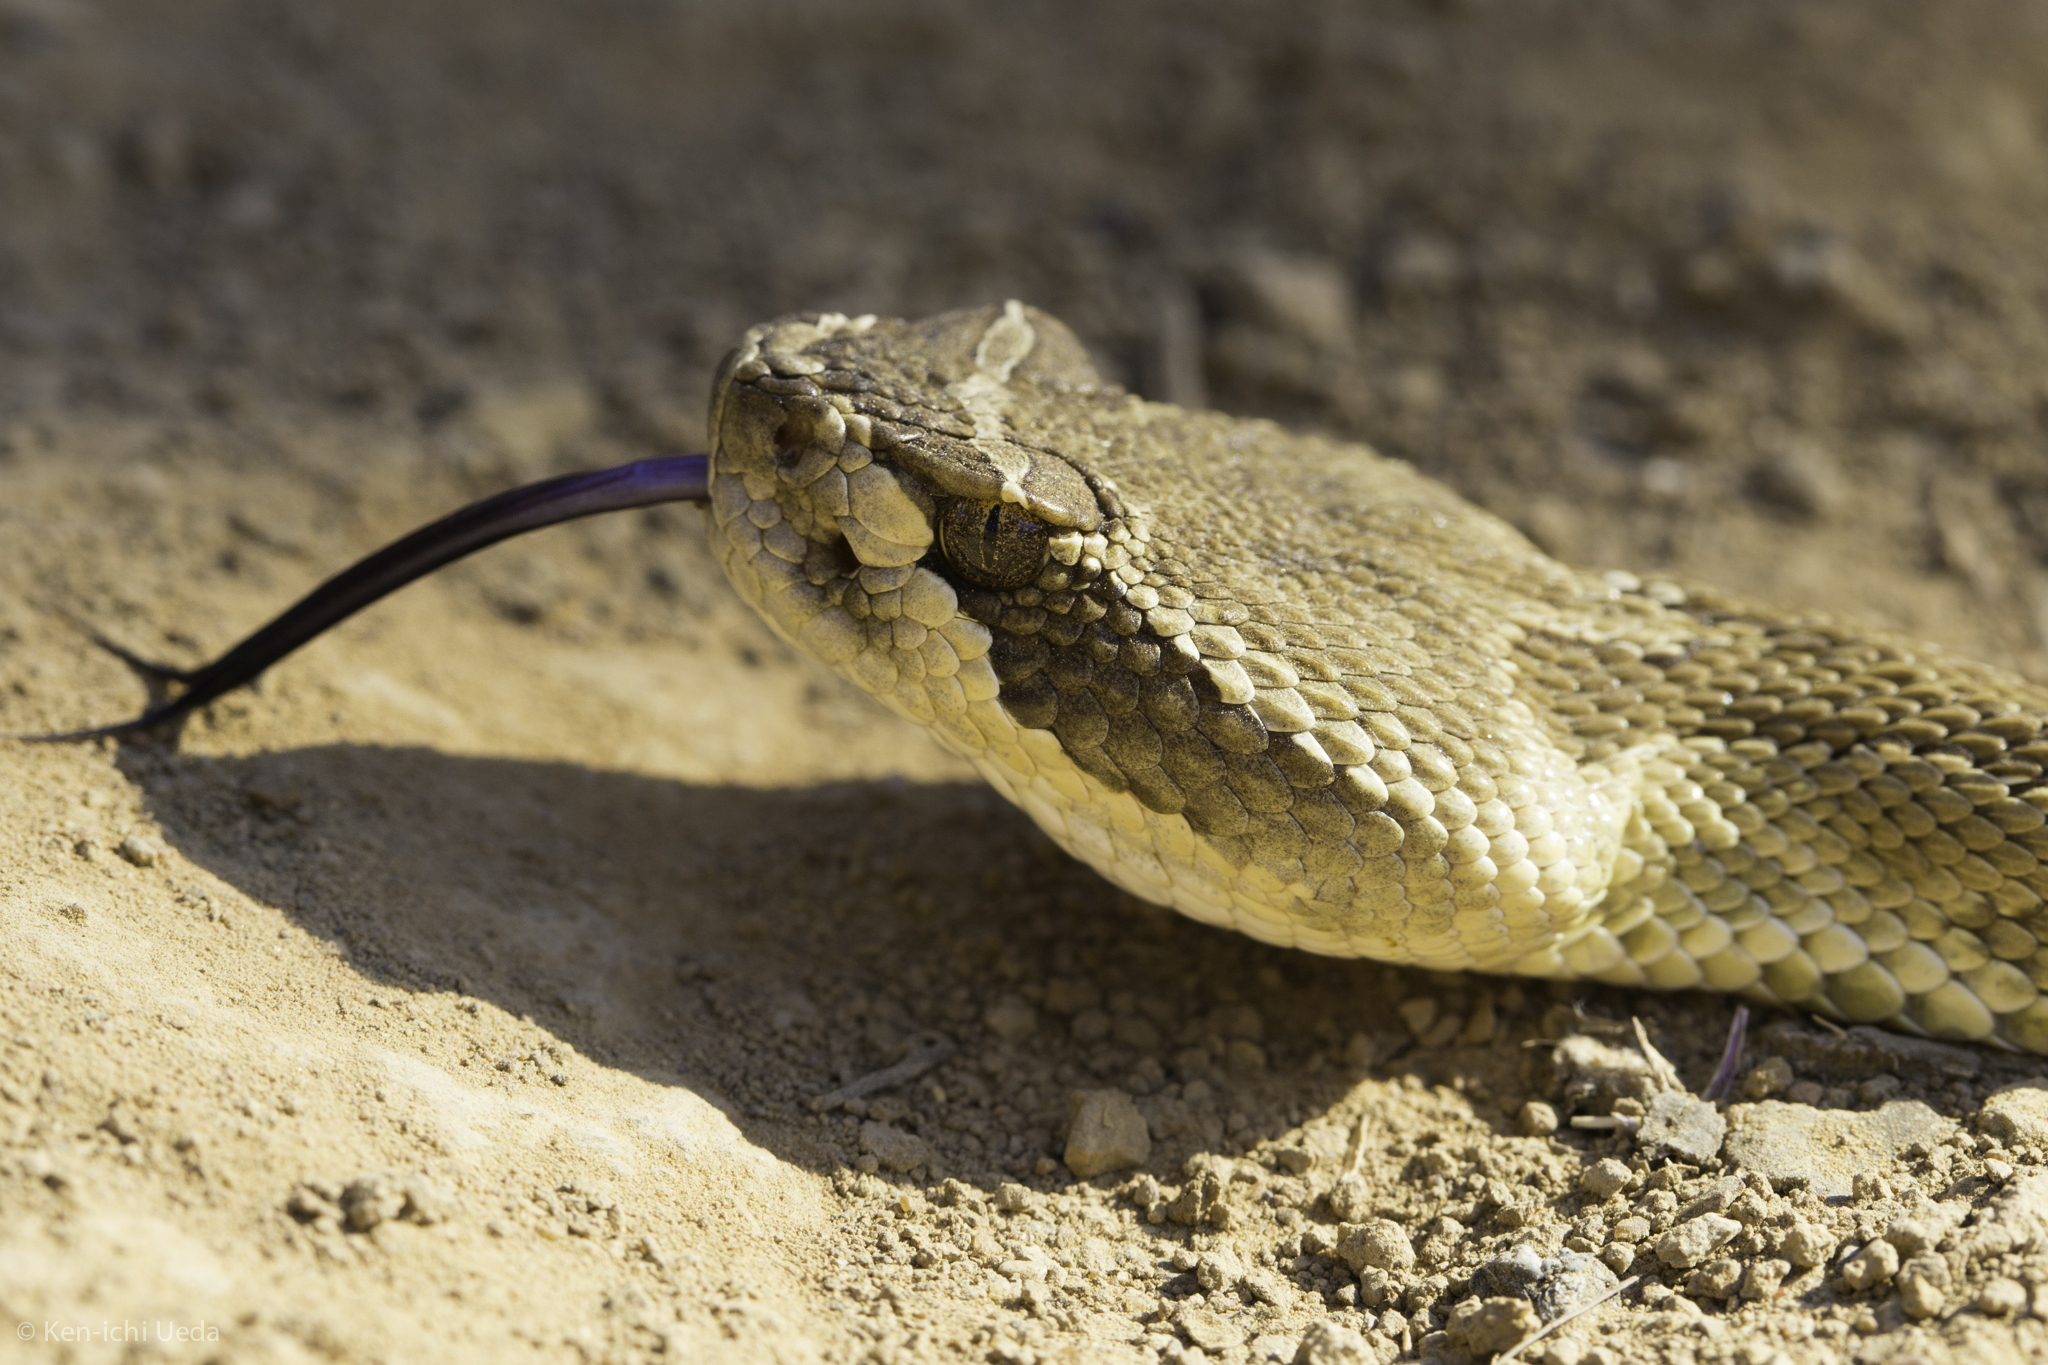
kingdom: Animalia
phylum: Chordata
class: Squamata
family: Viperidae
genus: Crotalus
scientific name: Crotalus oreganus
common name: Abyssus
